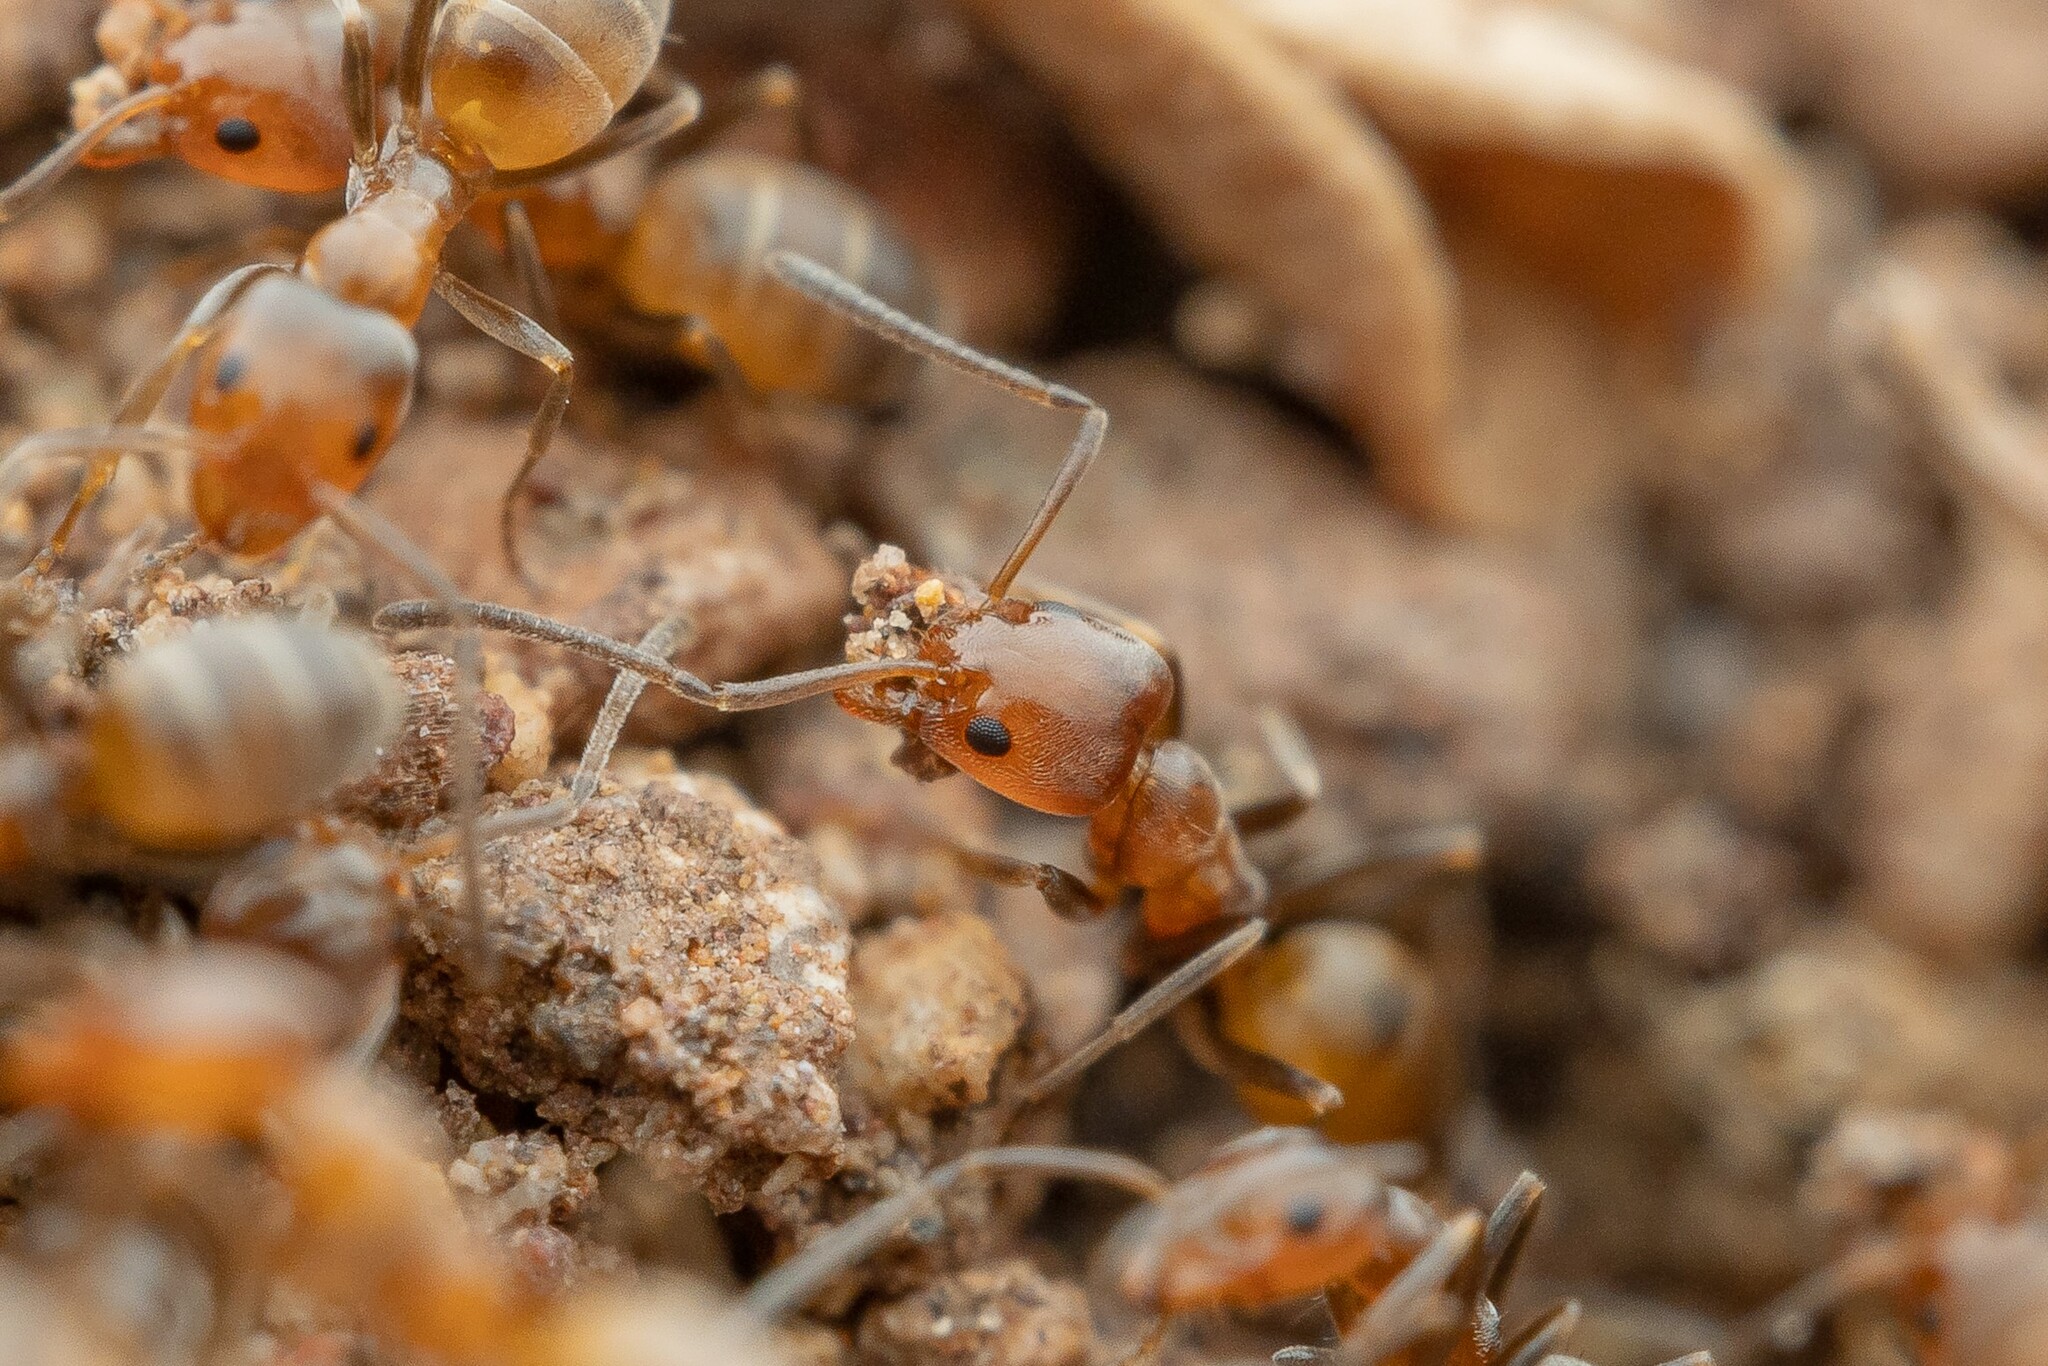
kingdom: Animalia
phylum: Arthropoda
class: Insecta
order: Hymenoptera
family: Formicidae
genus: Forelius
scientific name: Forelius pruinosus
